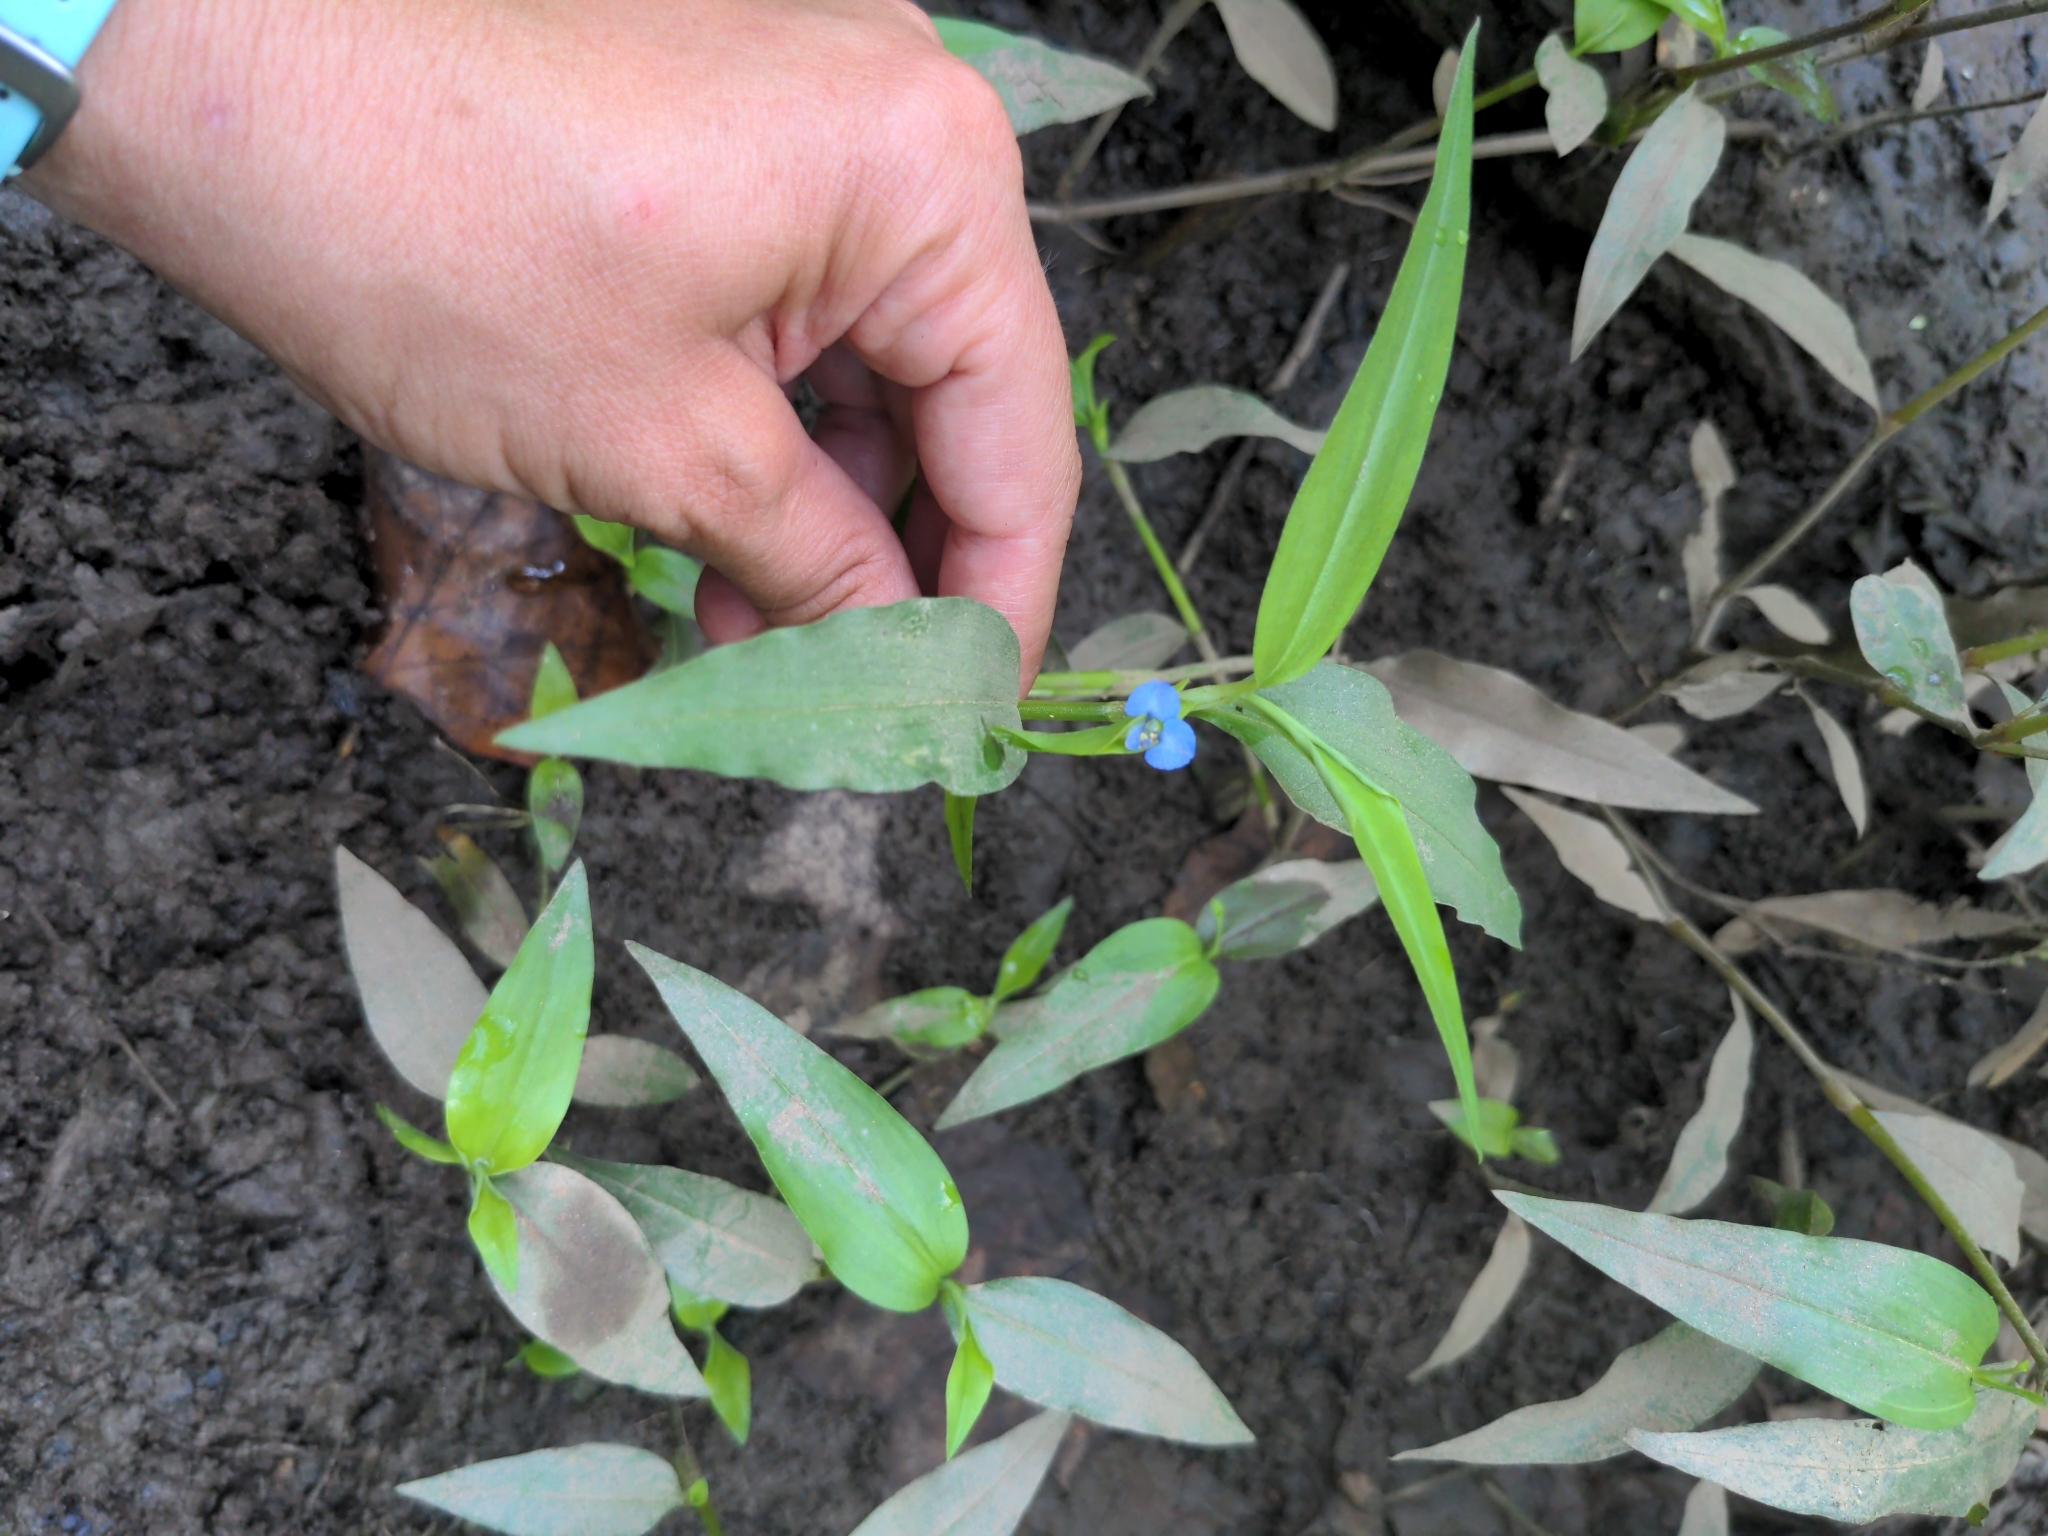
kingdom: Plantae
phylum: Tracheophyta
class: Liliopsida
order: Commelinales
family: Commelinaceae
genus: Commelina
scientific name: Commelina diffusa
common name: Climbing dayflower
